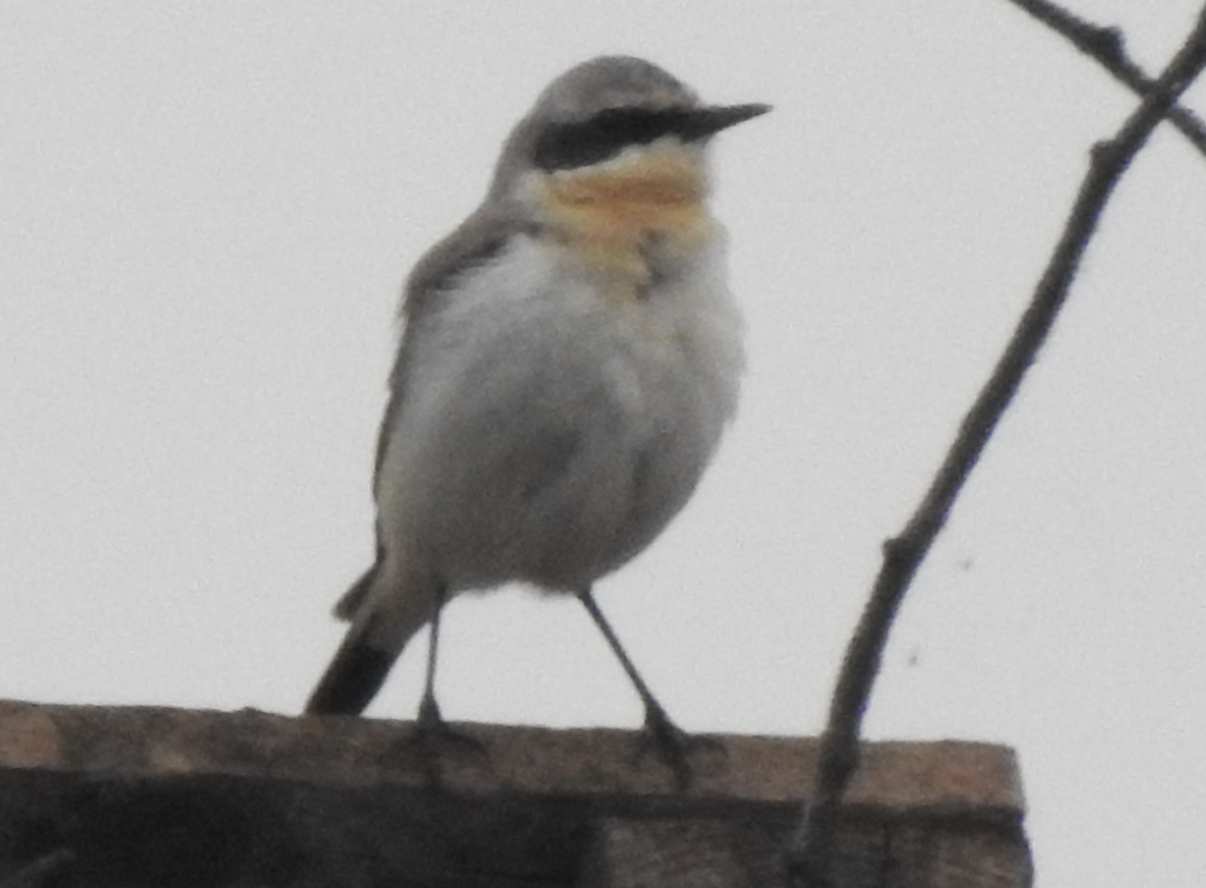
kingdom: Animalia
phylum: Chordata
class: Aves
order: Passeriformes
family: Muscicapidae
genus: Oenanthe
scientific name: Oenanthe oenanthe
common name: Northern wheatear
